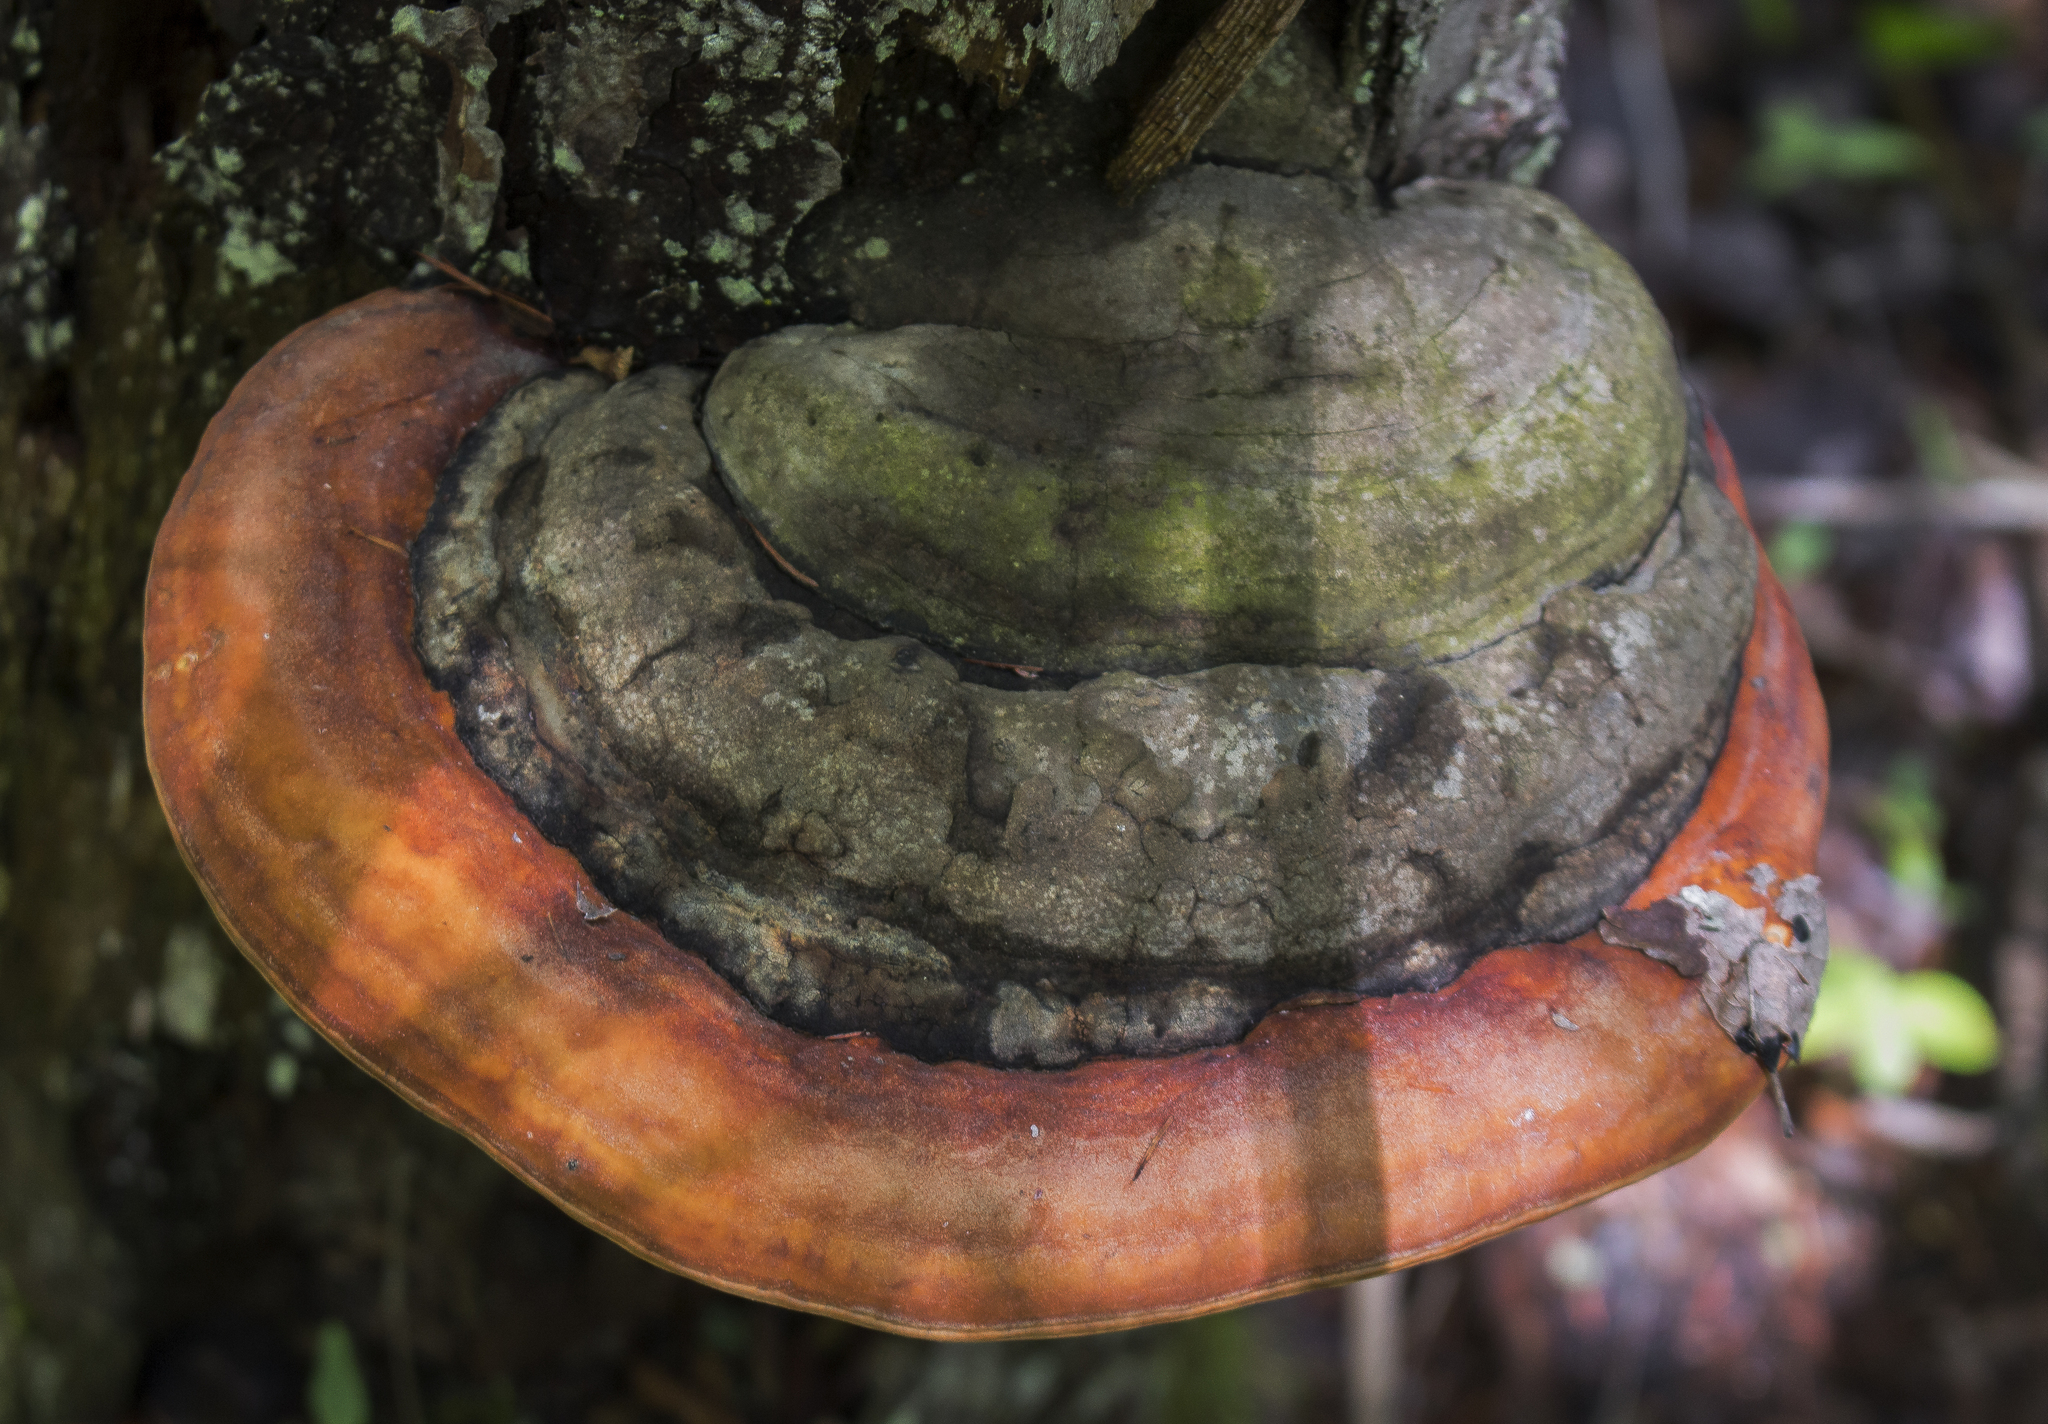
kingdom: Fungi
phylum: Basidiomycota
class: Agaricomycetes
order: Polyporales
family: Fomitopsidaceae
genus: Fomitopsis
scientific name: Fomitopsis mounceae
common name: Northern red belt
